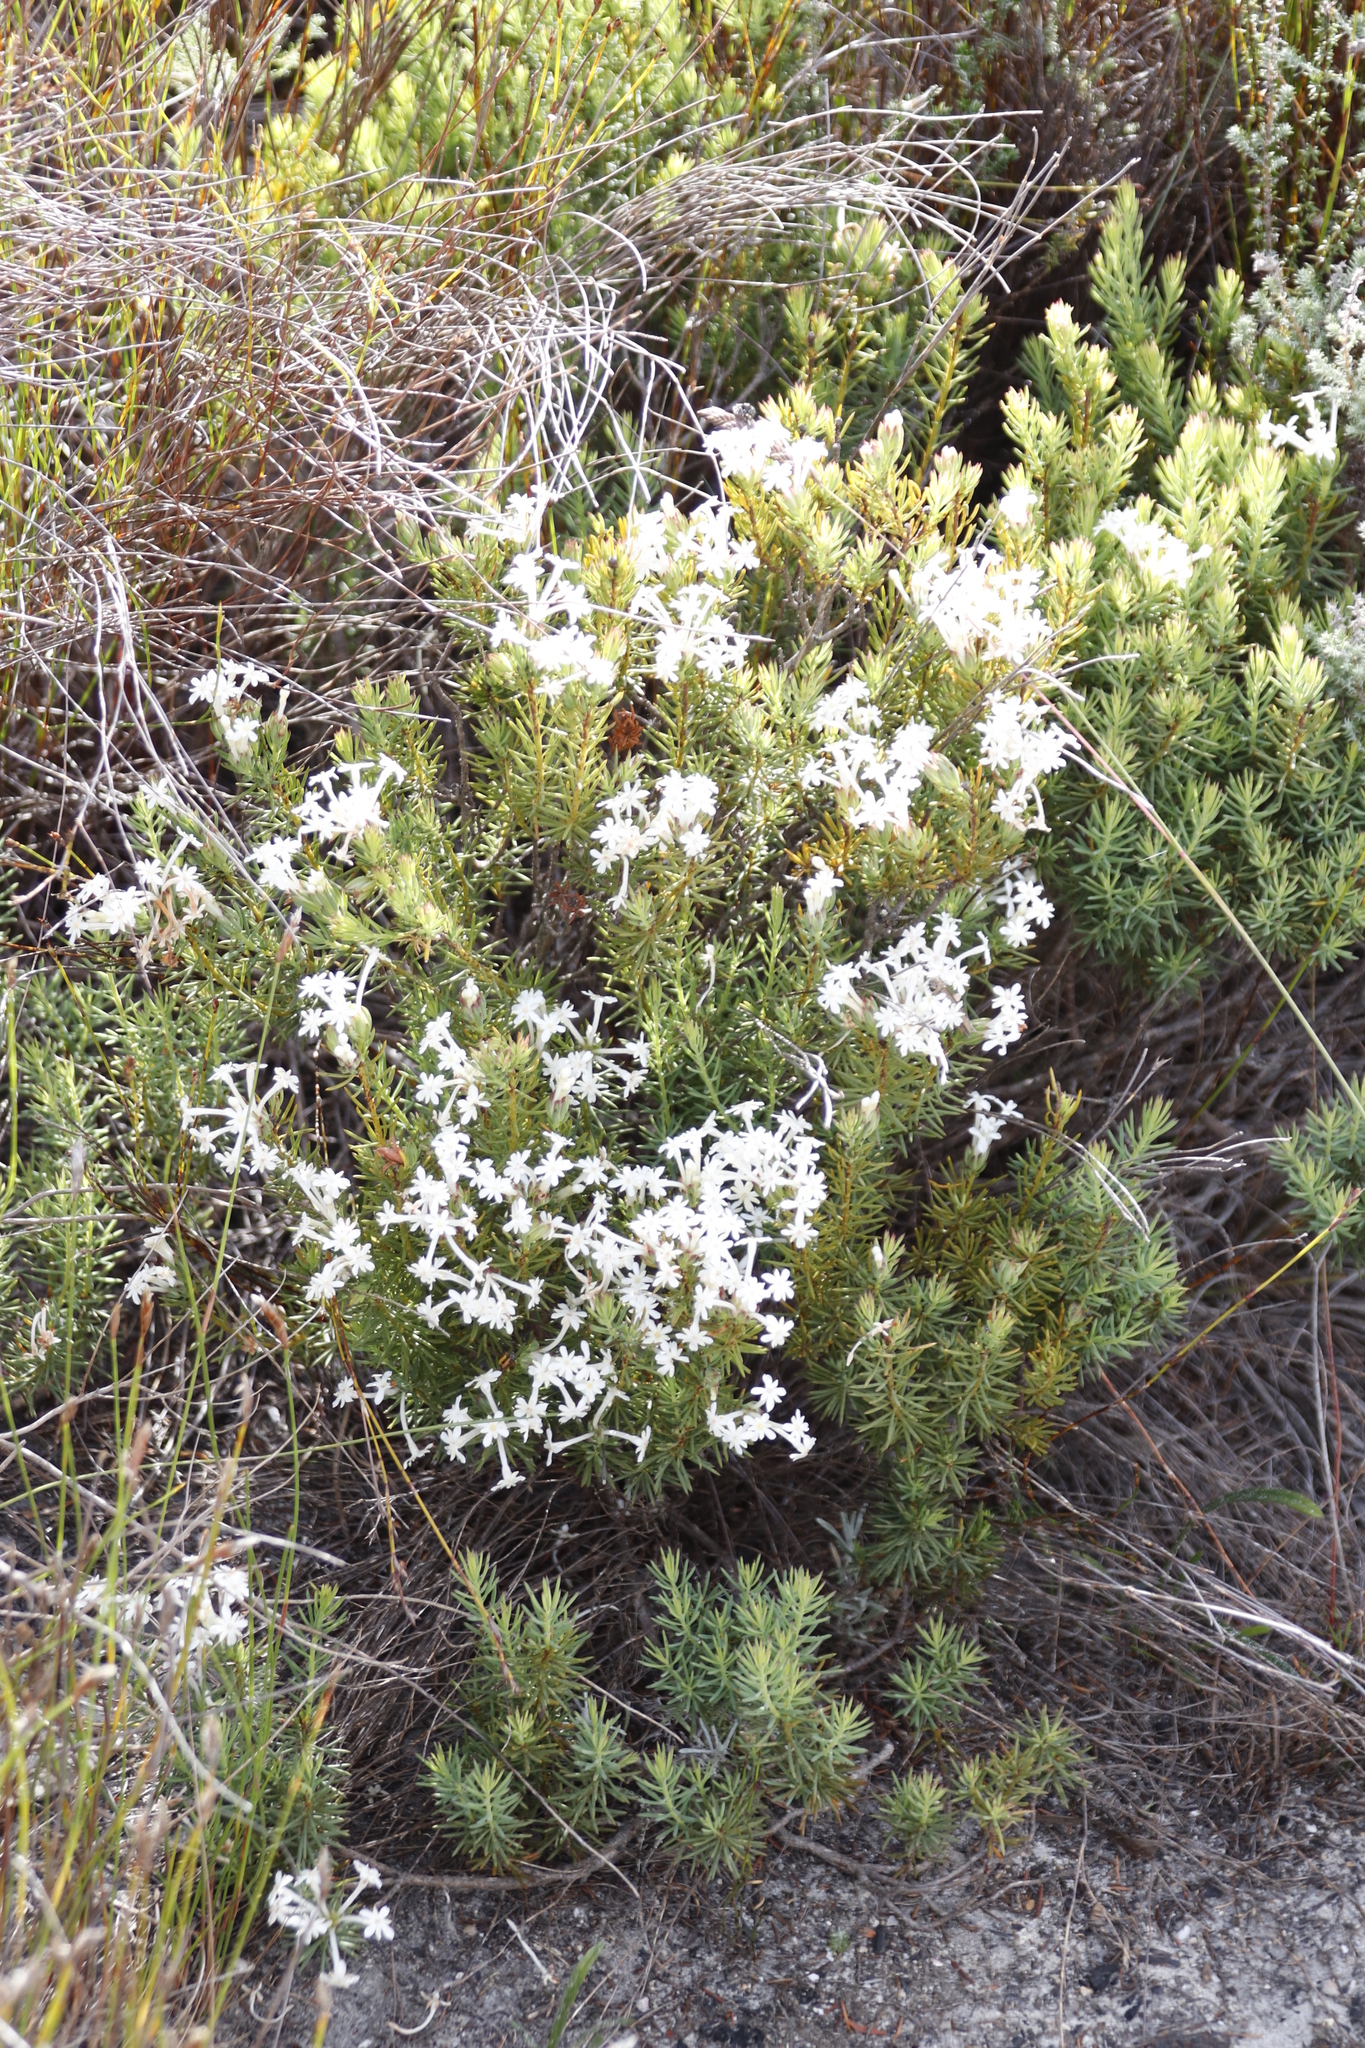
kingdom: Plantae
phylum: Tracheophyta
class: Magnoliopsida
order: Malvales
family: Thymelaeaceae
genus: Gnidia
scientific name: Gnidia pinifolia
